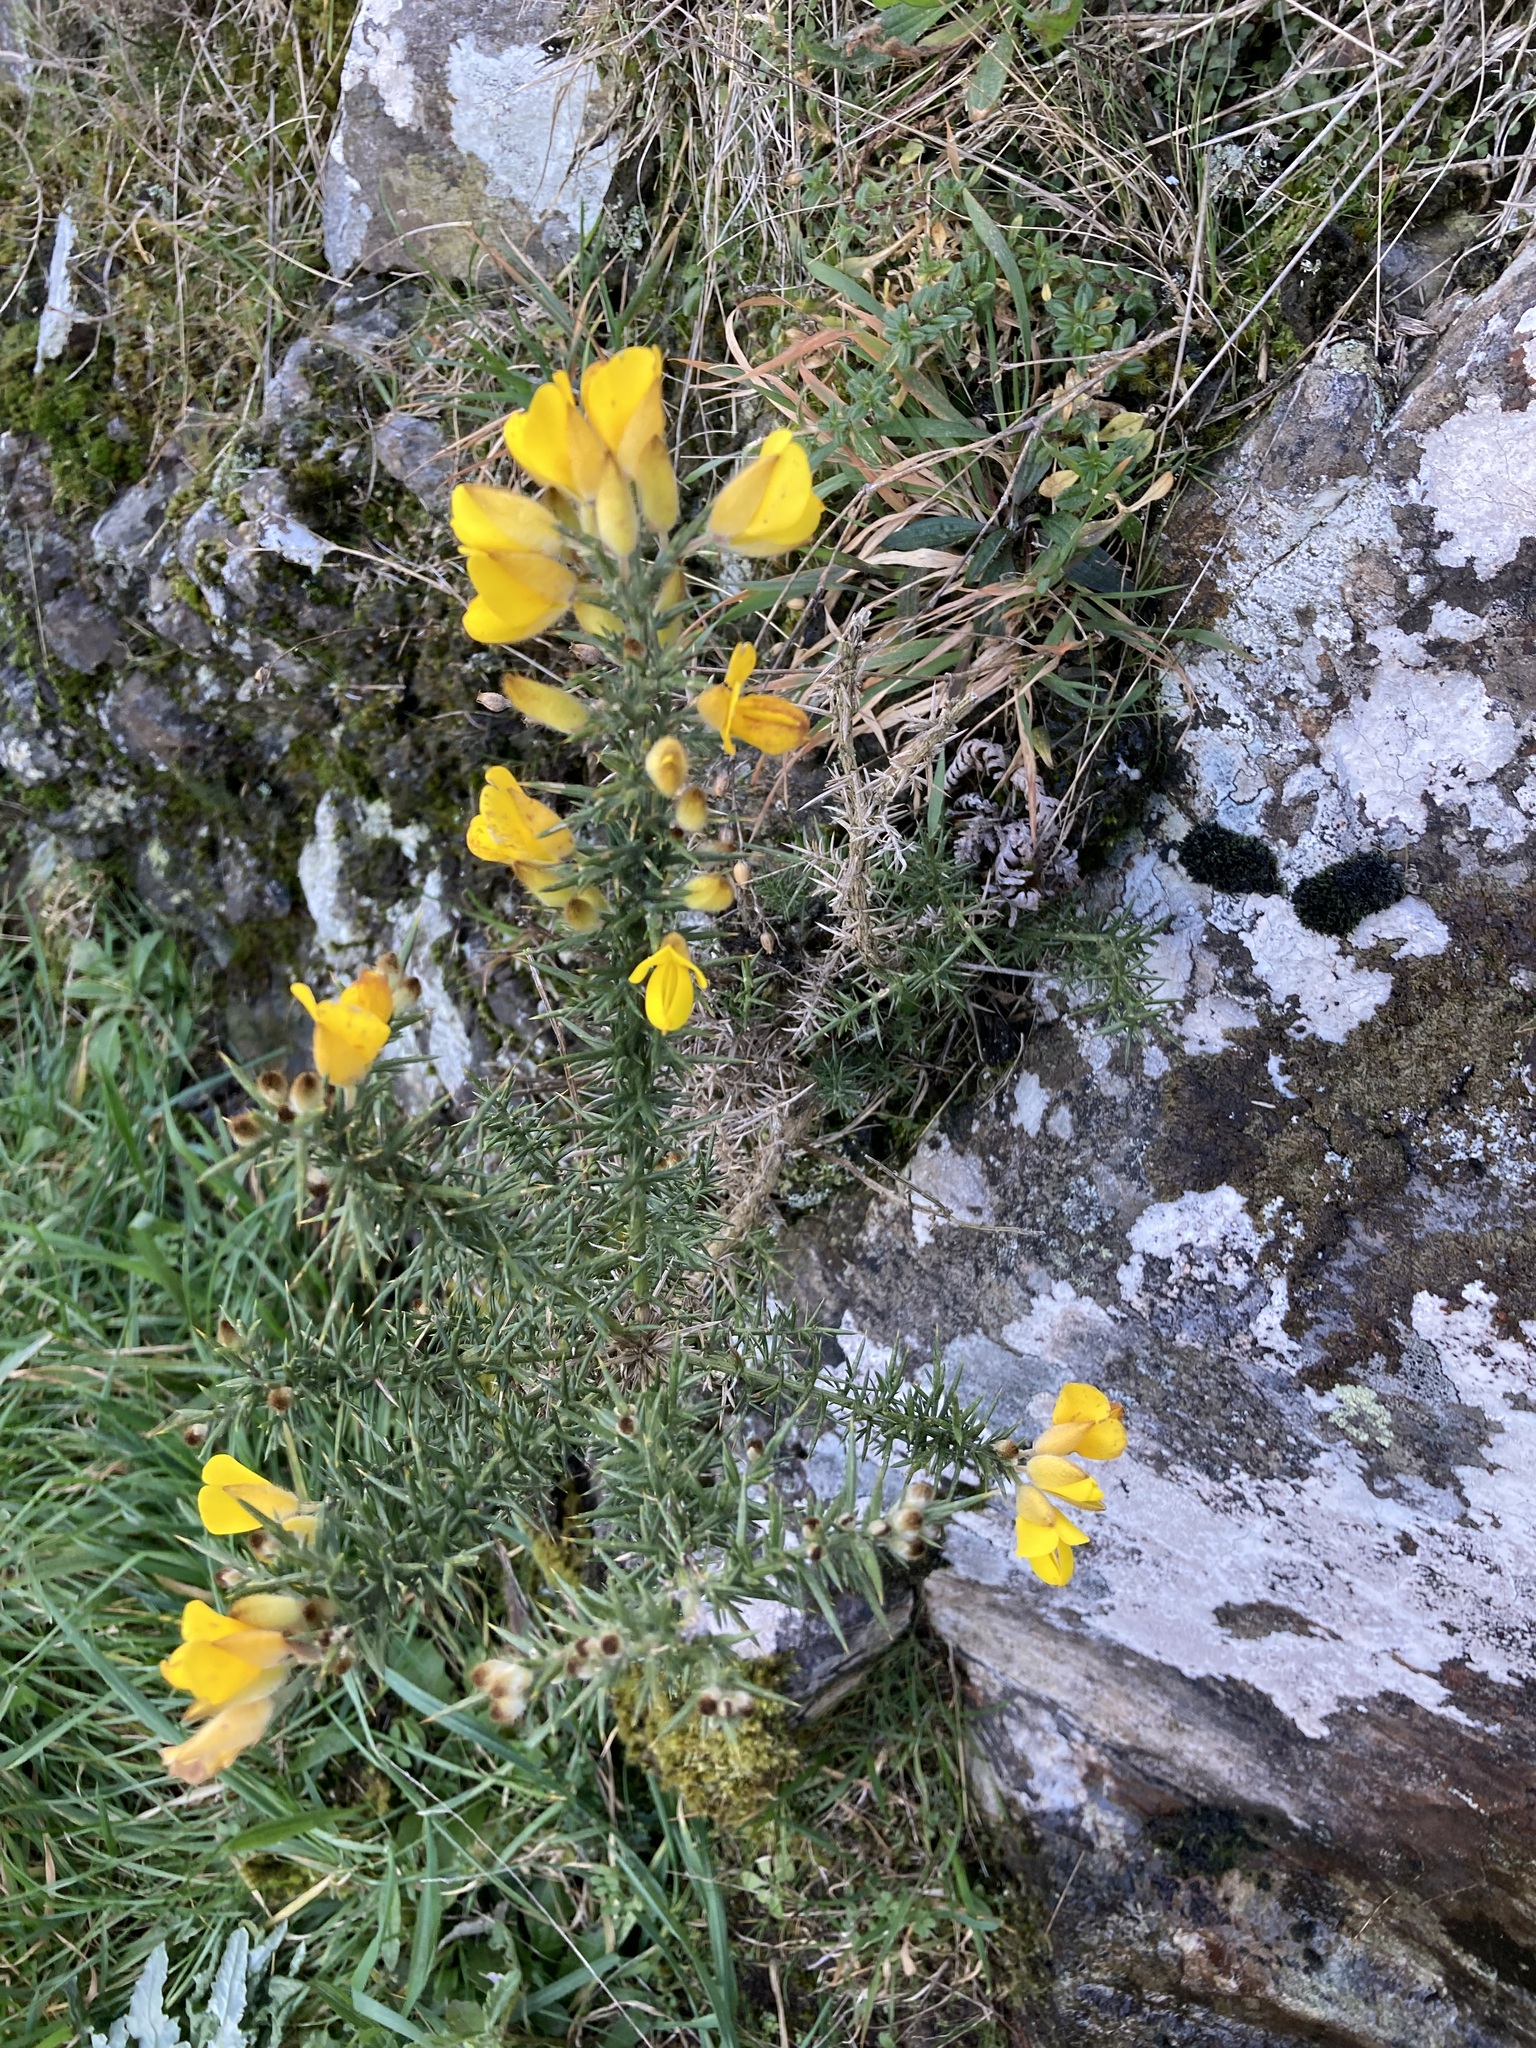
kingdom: Plantae
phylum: Tracheophyta
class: Magnoliopsida
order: Fabales
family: Fabaceae
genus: Ulex
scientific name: Ulex europaeus
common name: Common gorse
